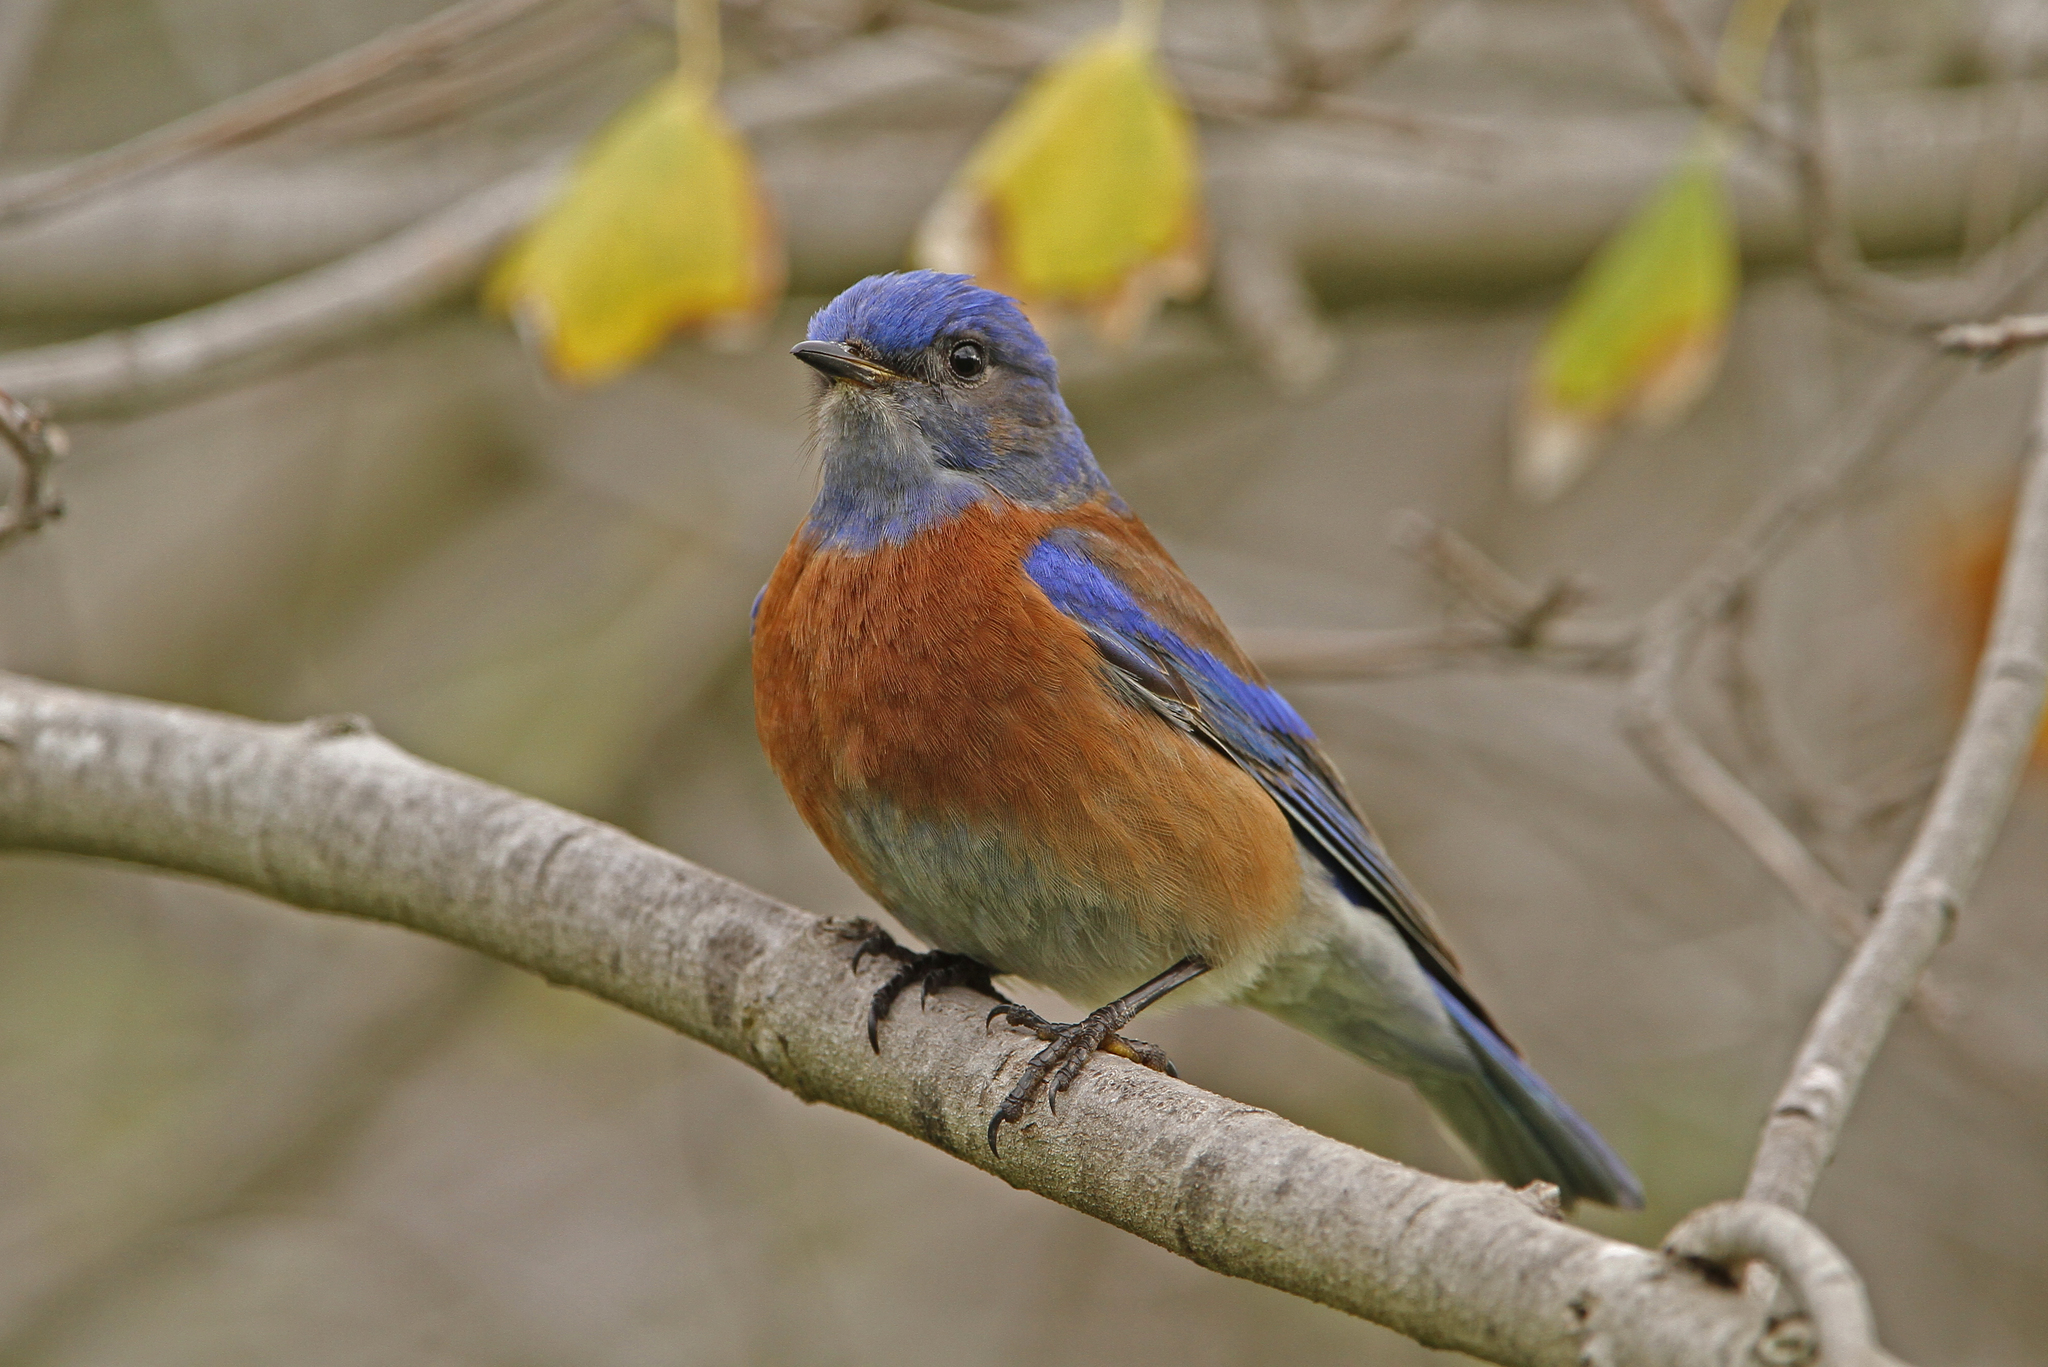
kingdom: Animalia
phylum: Chordata
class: Aves
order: Passeriformes
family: Turdidae
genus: Sialia
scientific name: Sialia mexicana
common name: Western bluebird
